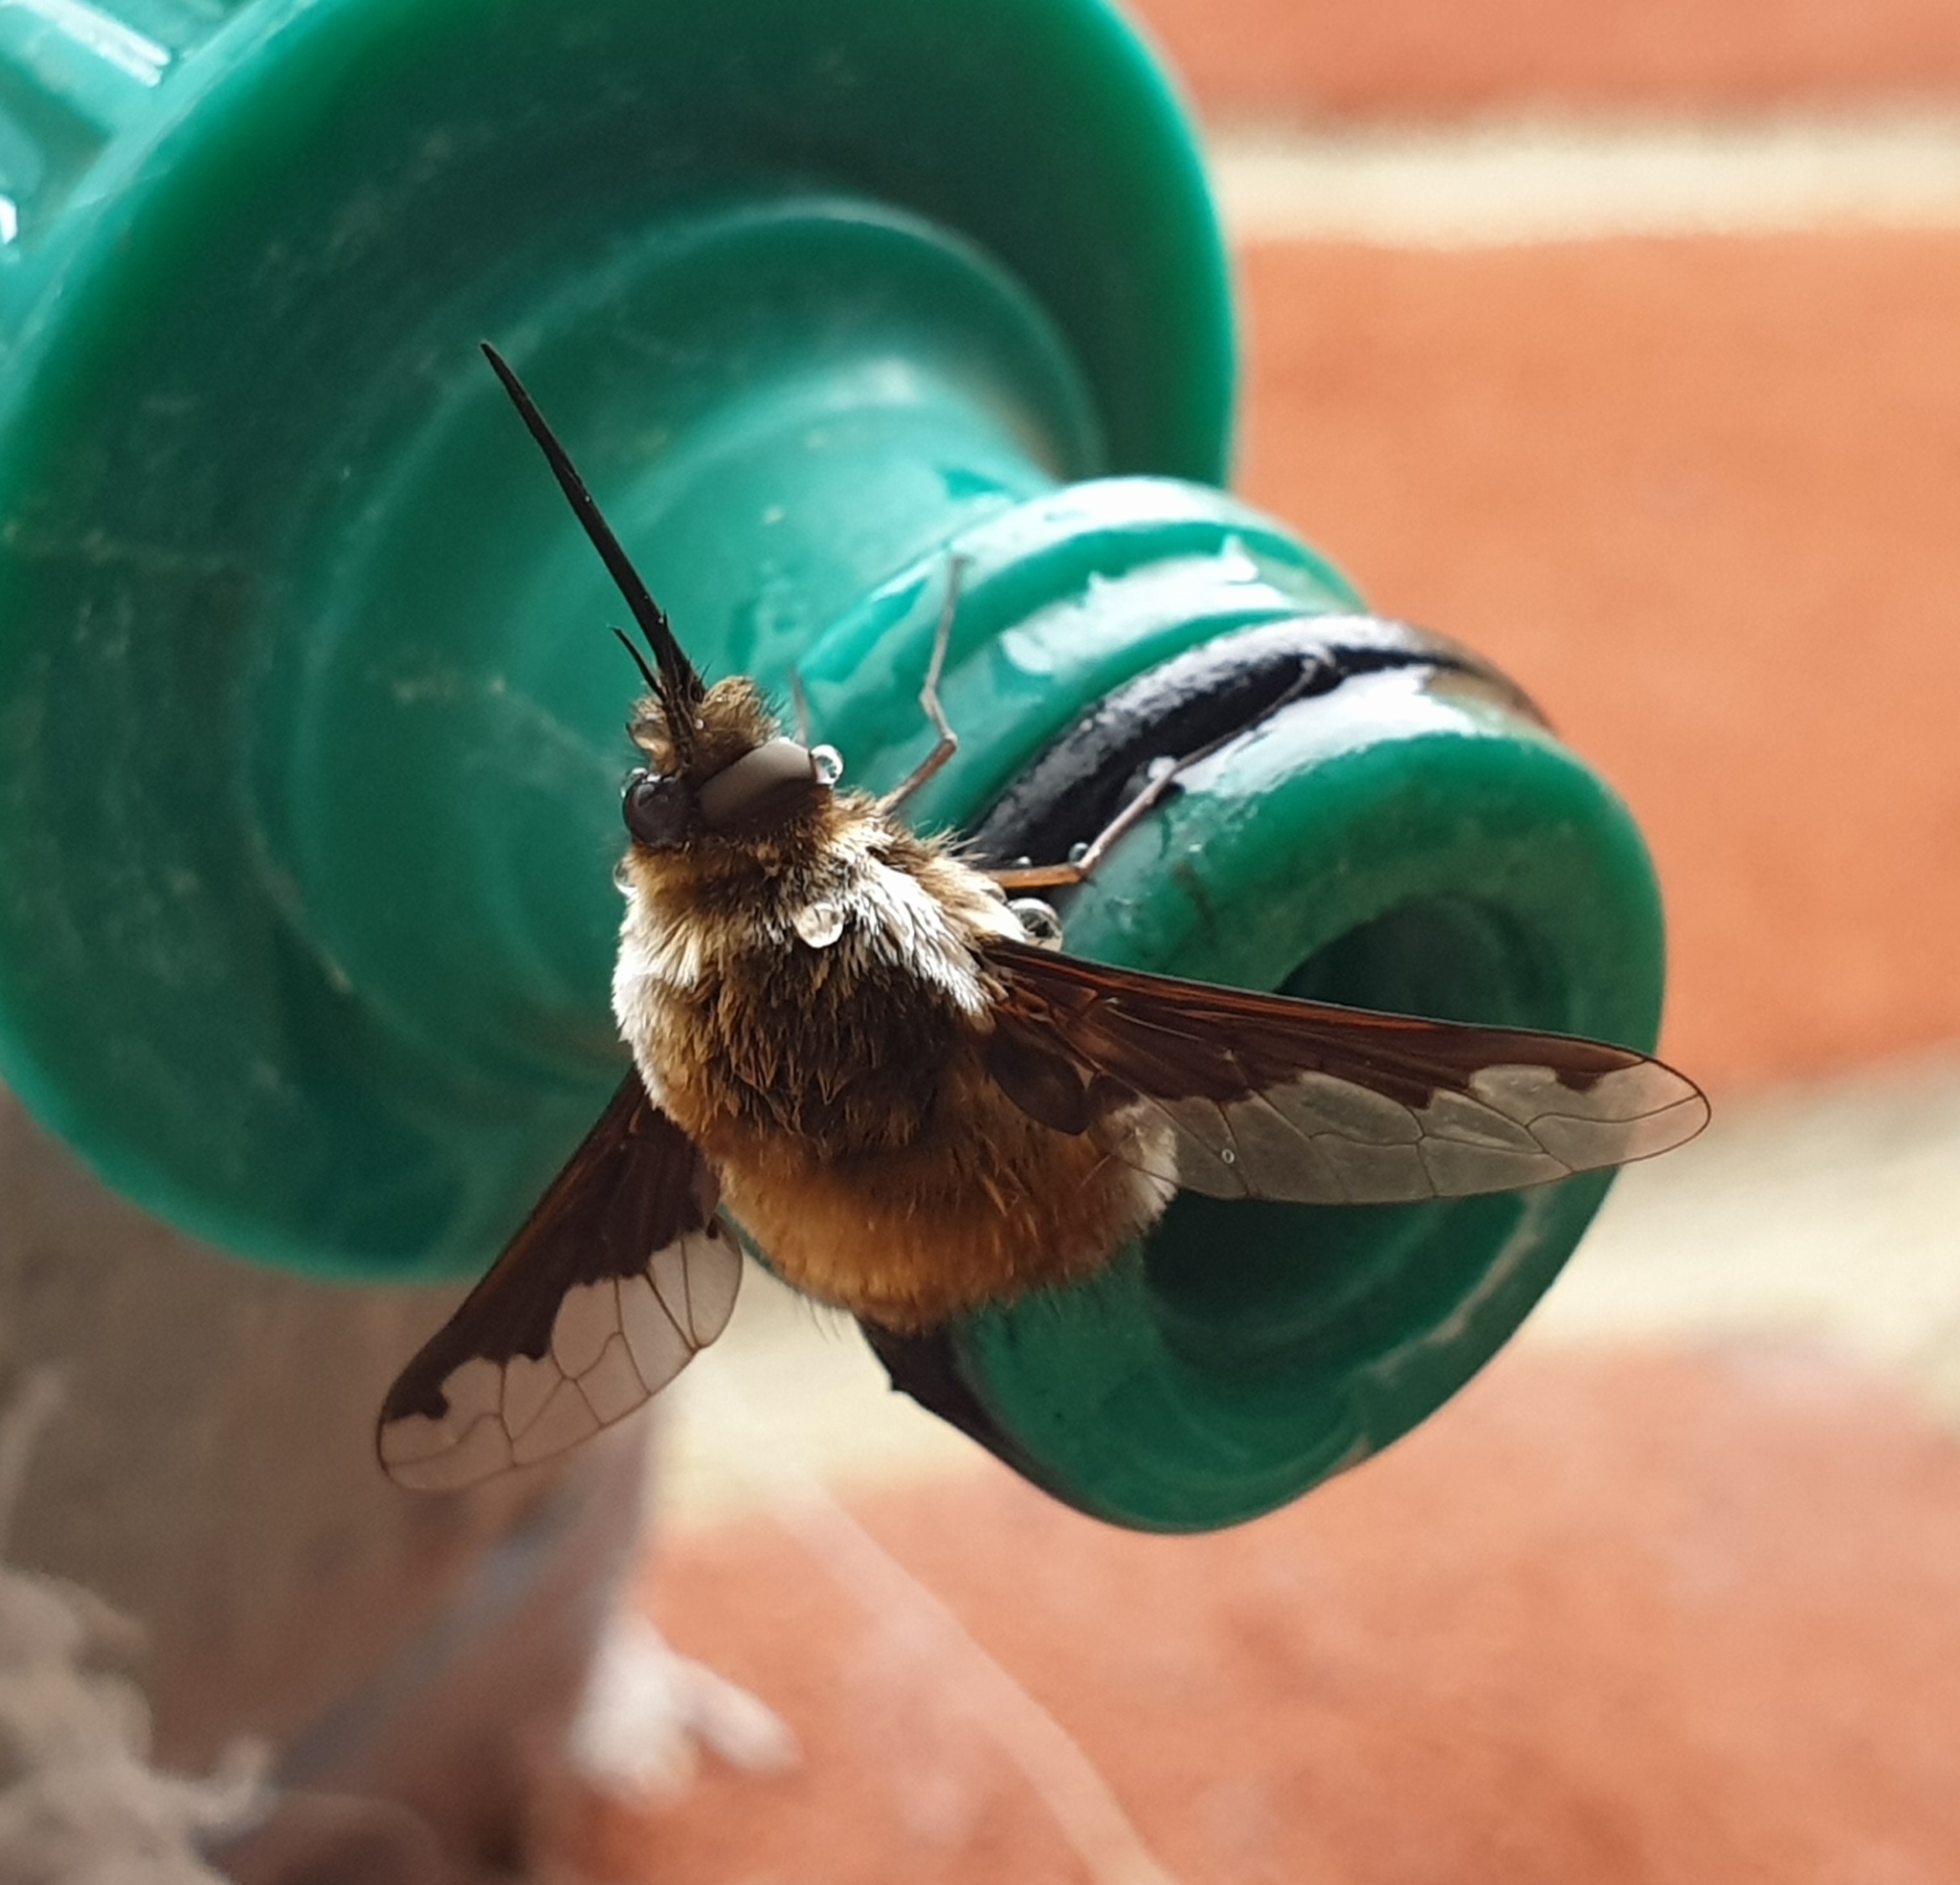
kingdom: Animalia
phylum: Arthropoda
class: Insecta
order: Diptera
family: Bombyliidae
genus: Bombylius
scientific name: Bombylius major
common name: Bee fly
